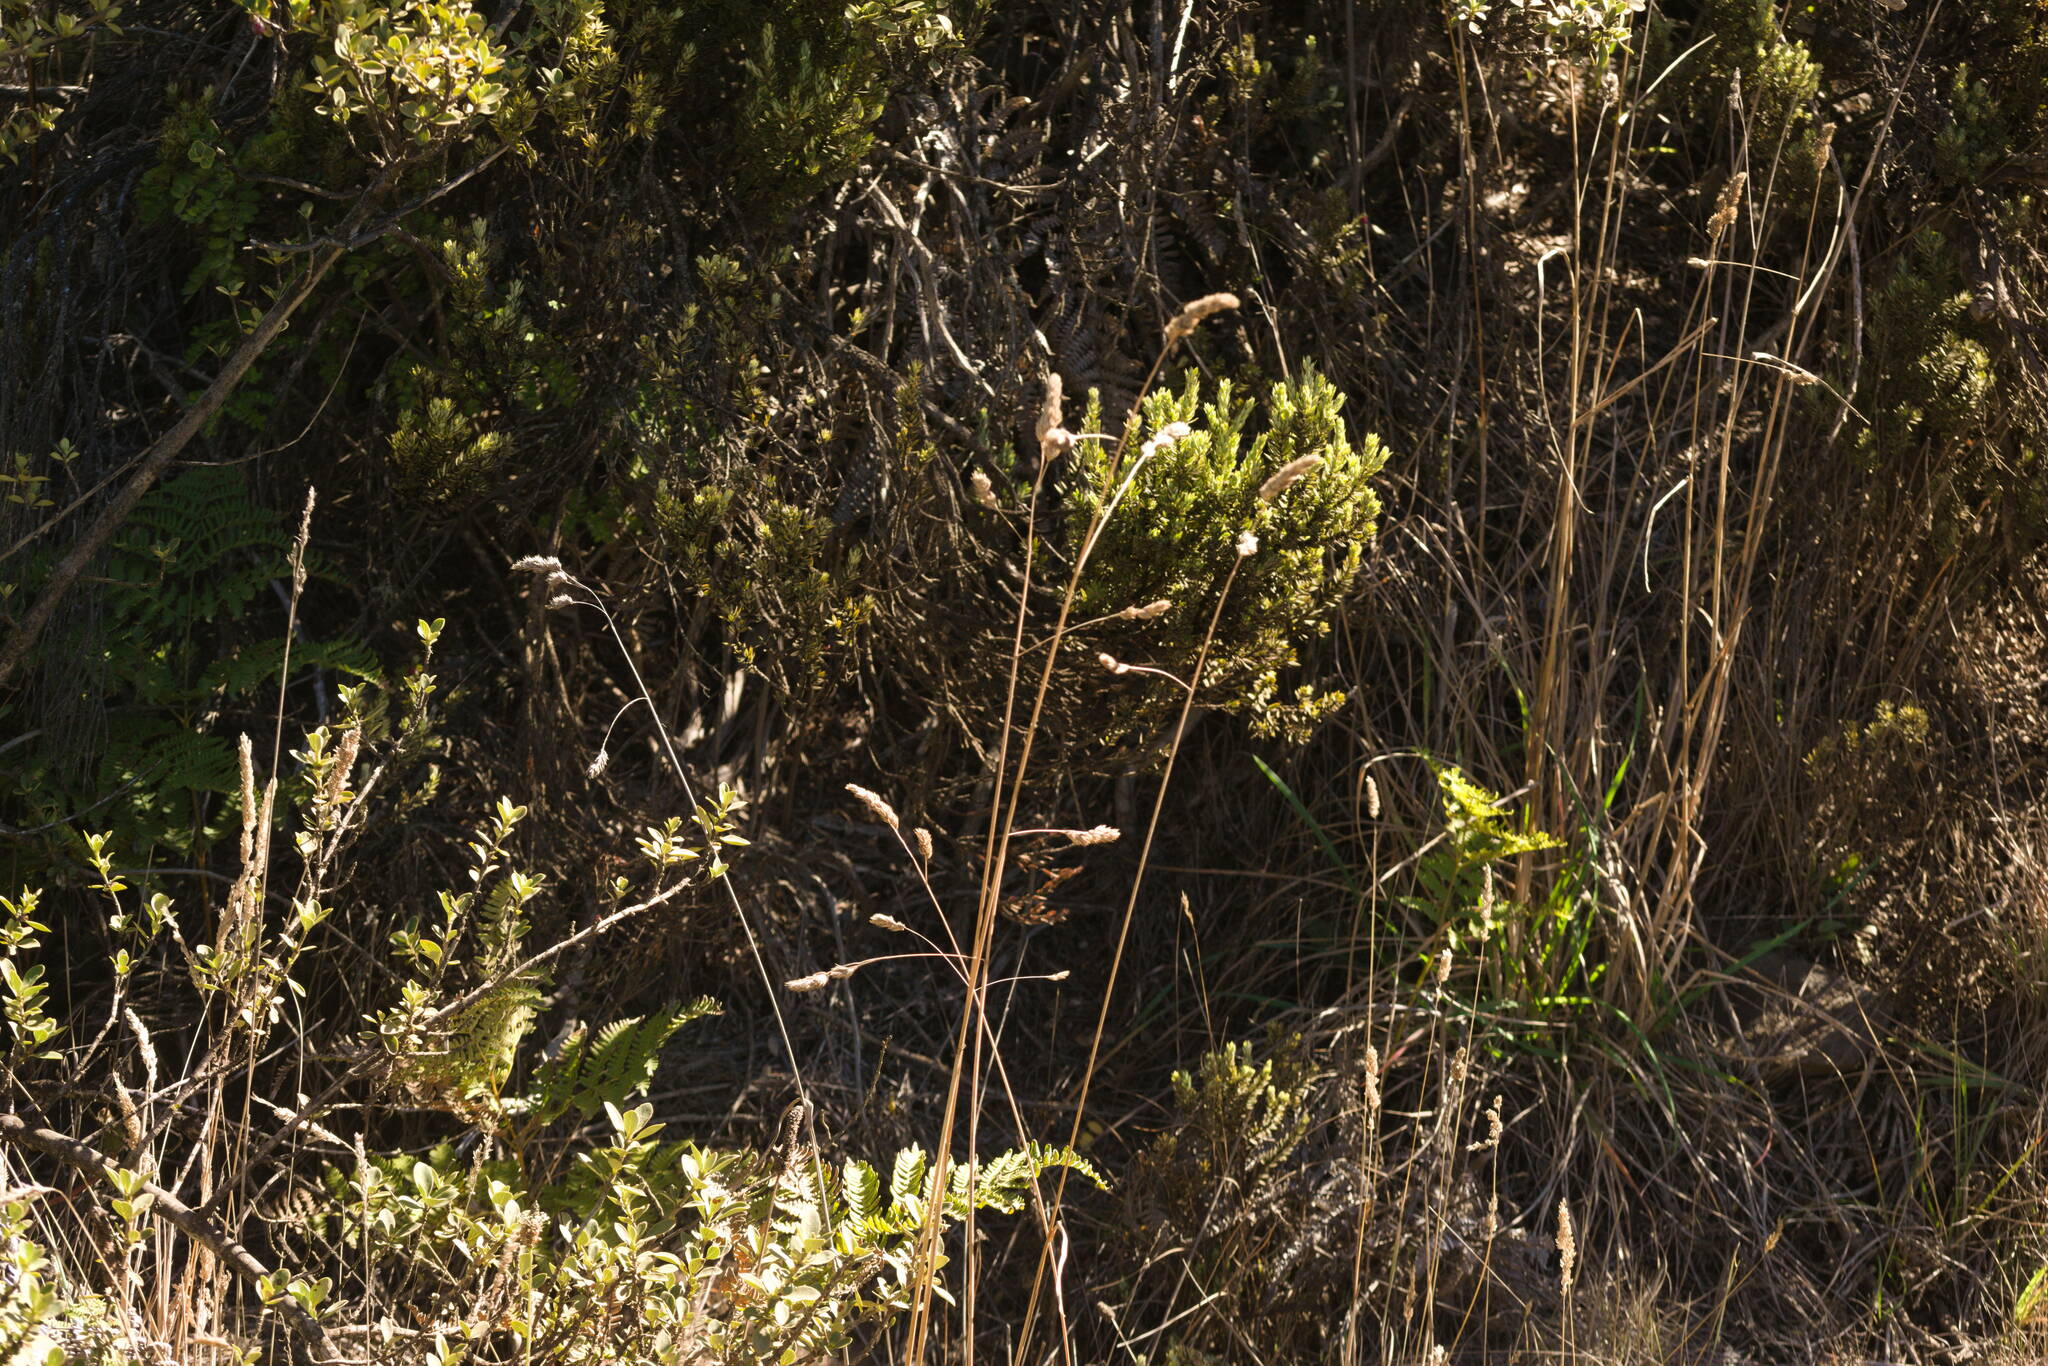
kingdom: Plantae
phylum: Tracheophyta
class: Liliopsida
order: Poales
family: Poaceae
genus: Dactylis
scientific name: Dactylis glomerata
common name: Orchardgrass
